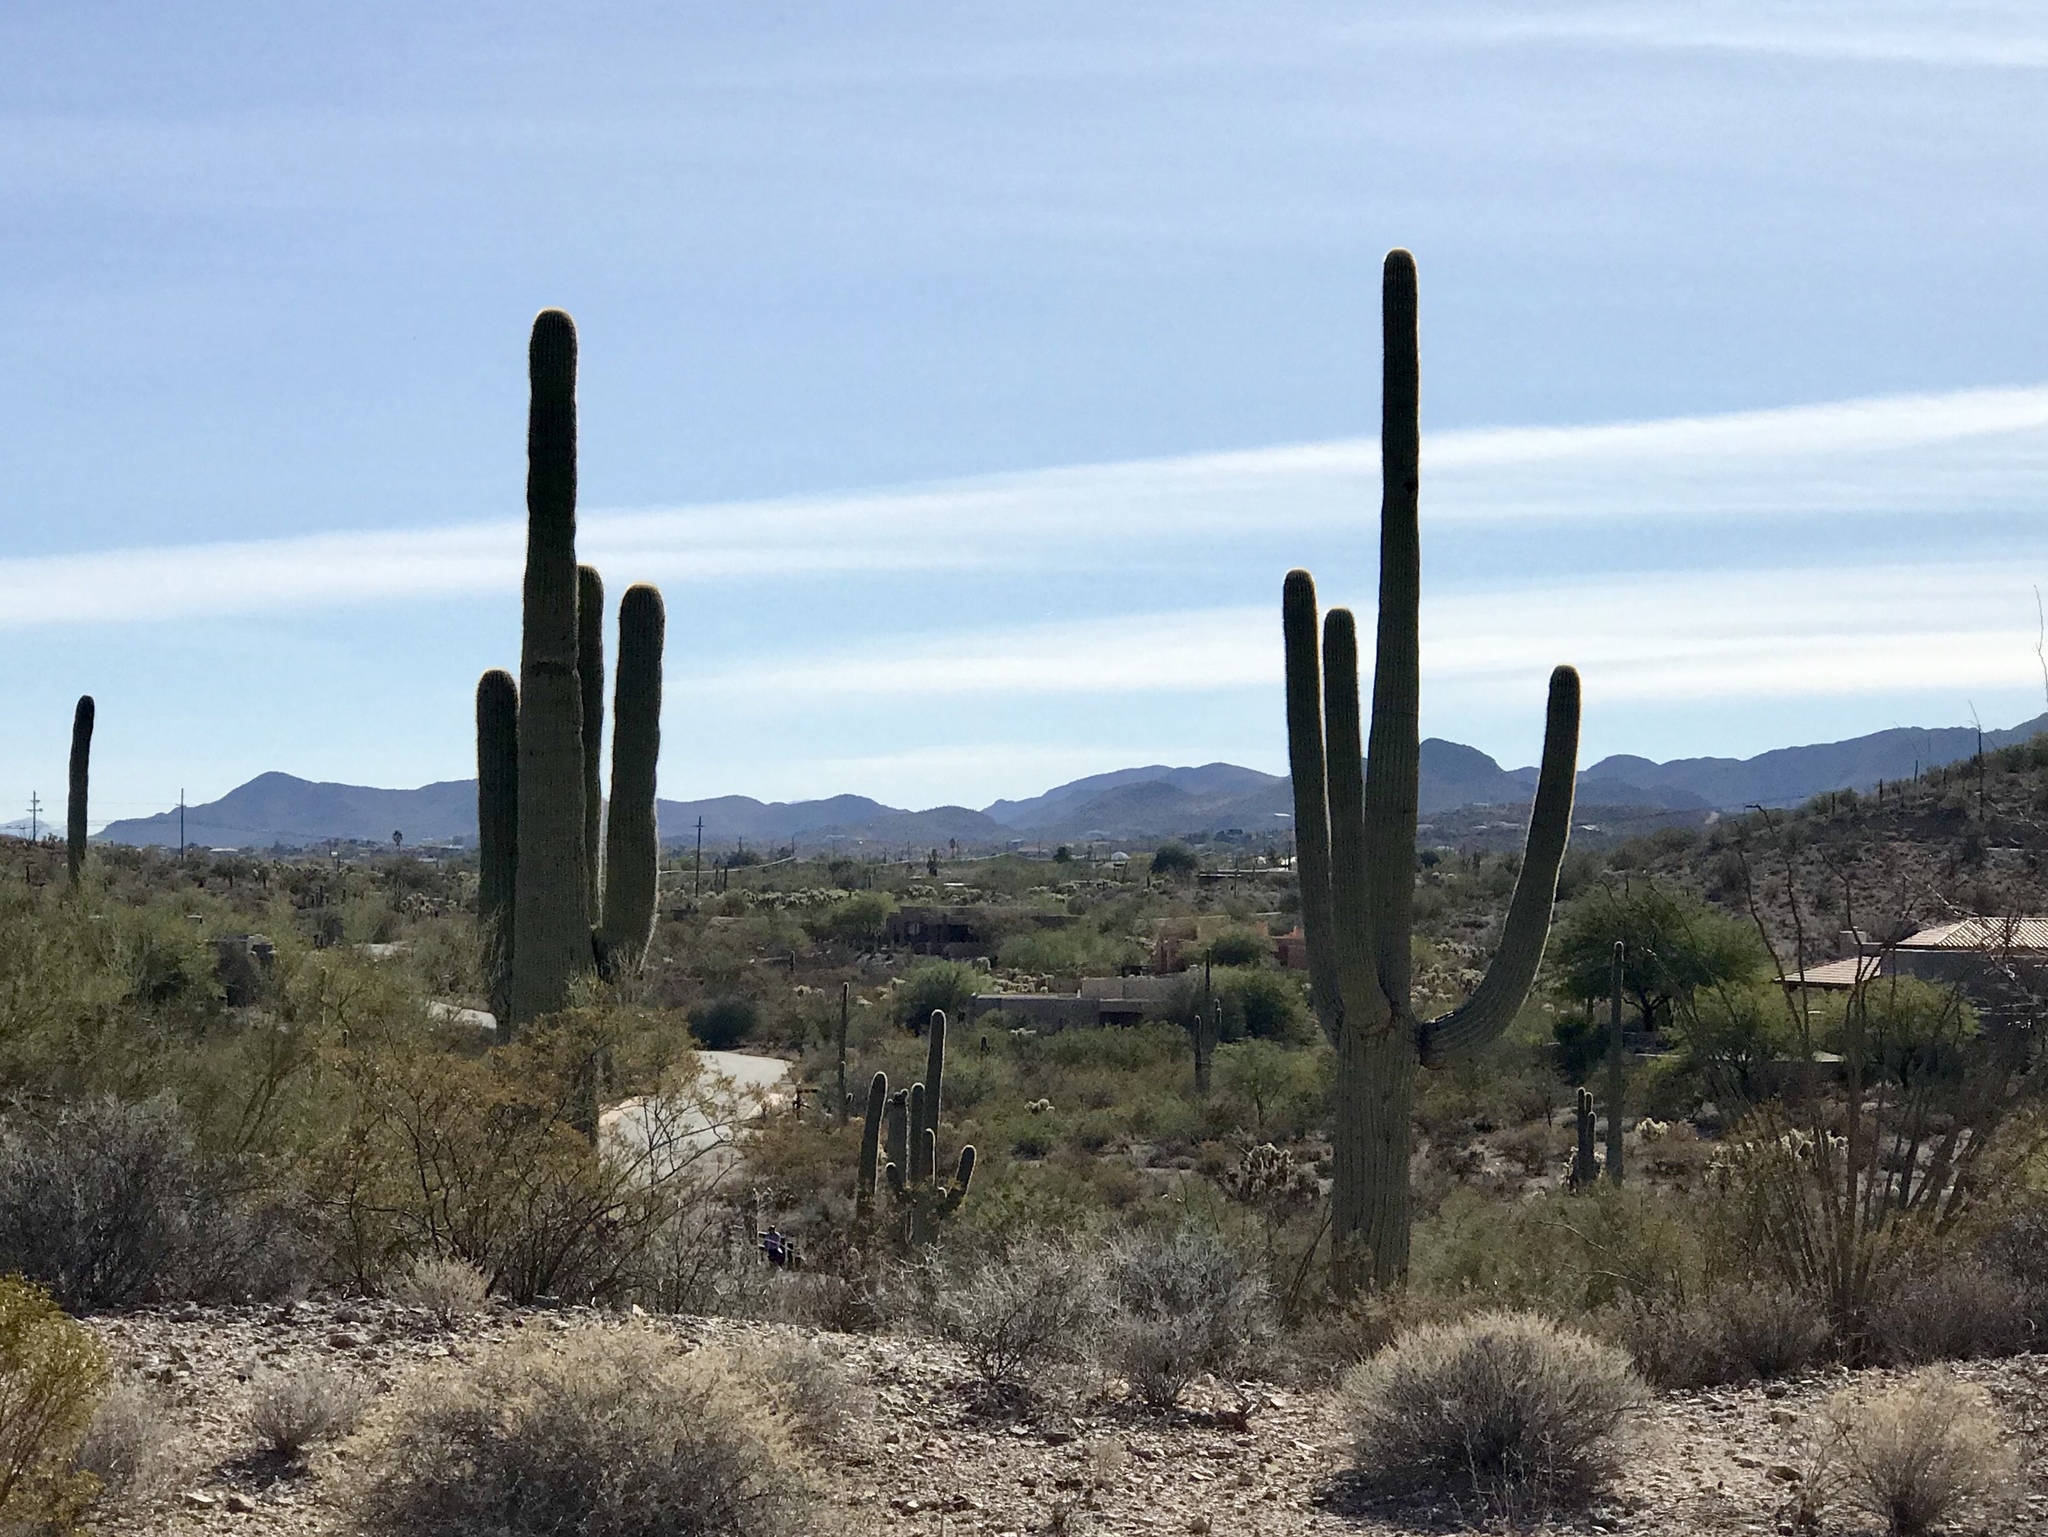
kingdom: Plantae
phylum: Tracheophyta
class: Magnoliopsida
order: Caryophyllales
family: Cactaceae
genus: Carnegiea
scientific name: Carnegiea gigantea
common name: Saguaro
